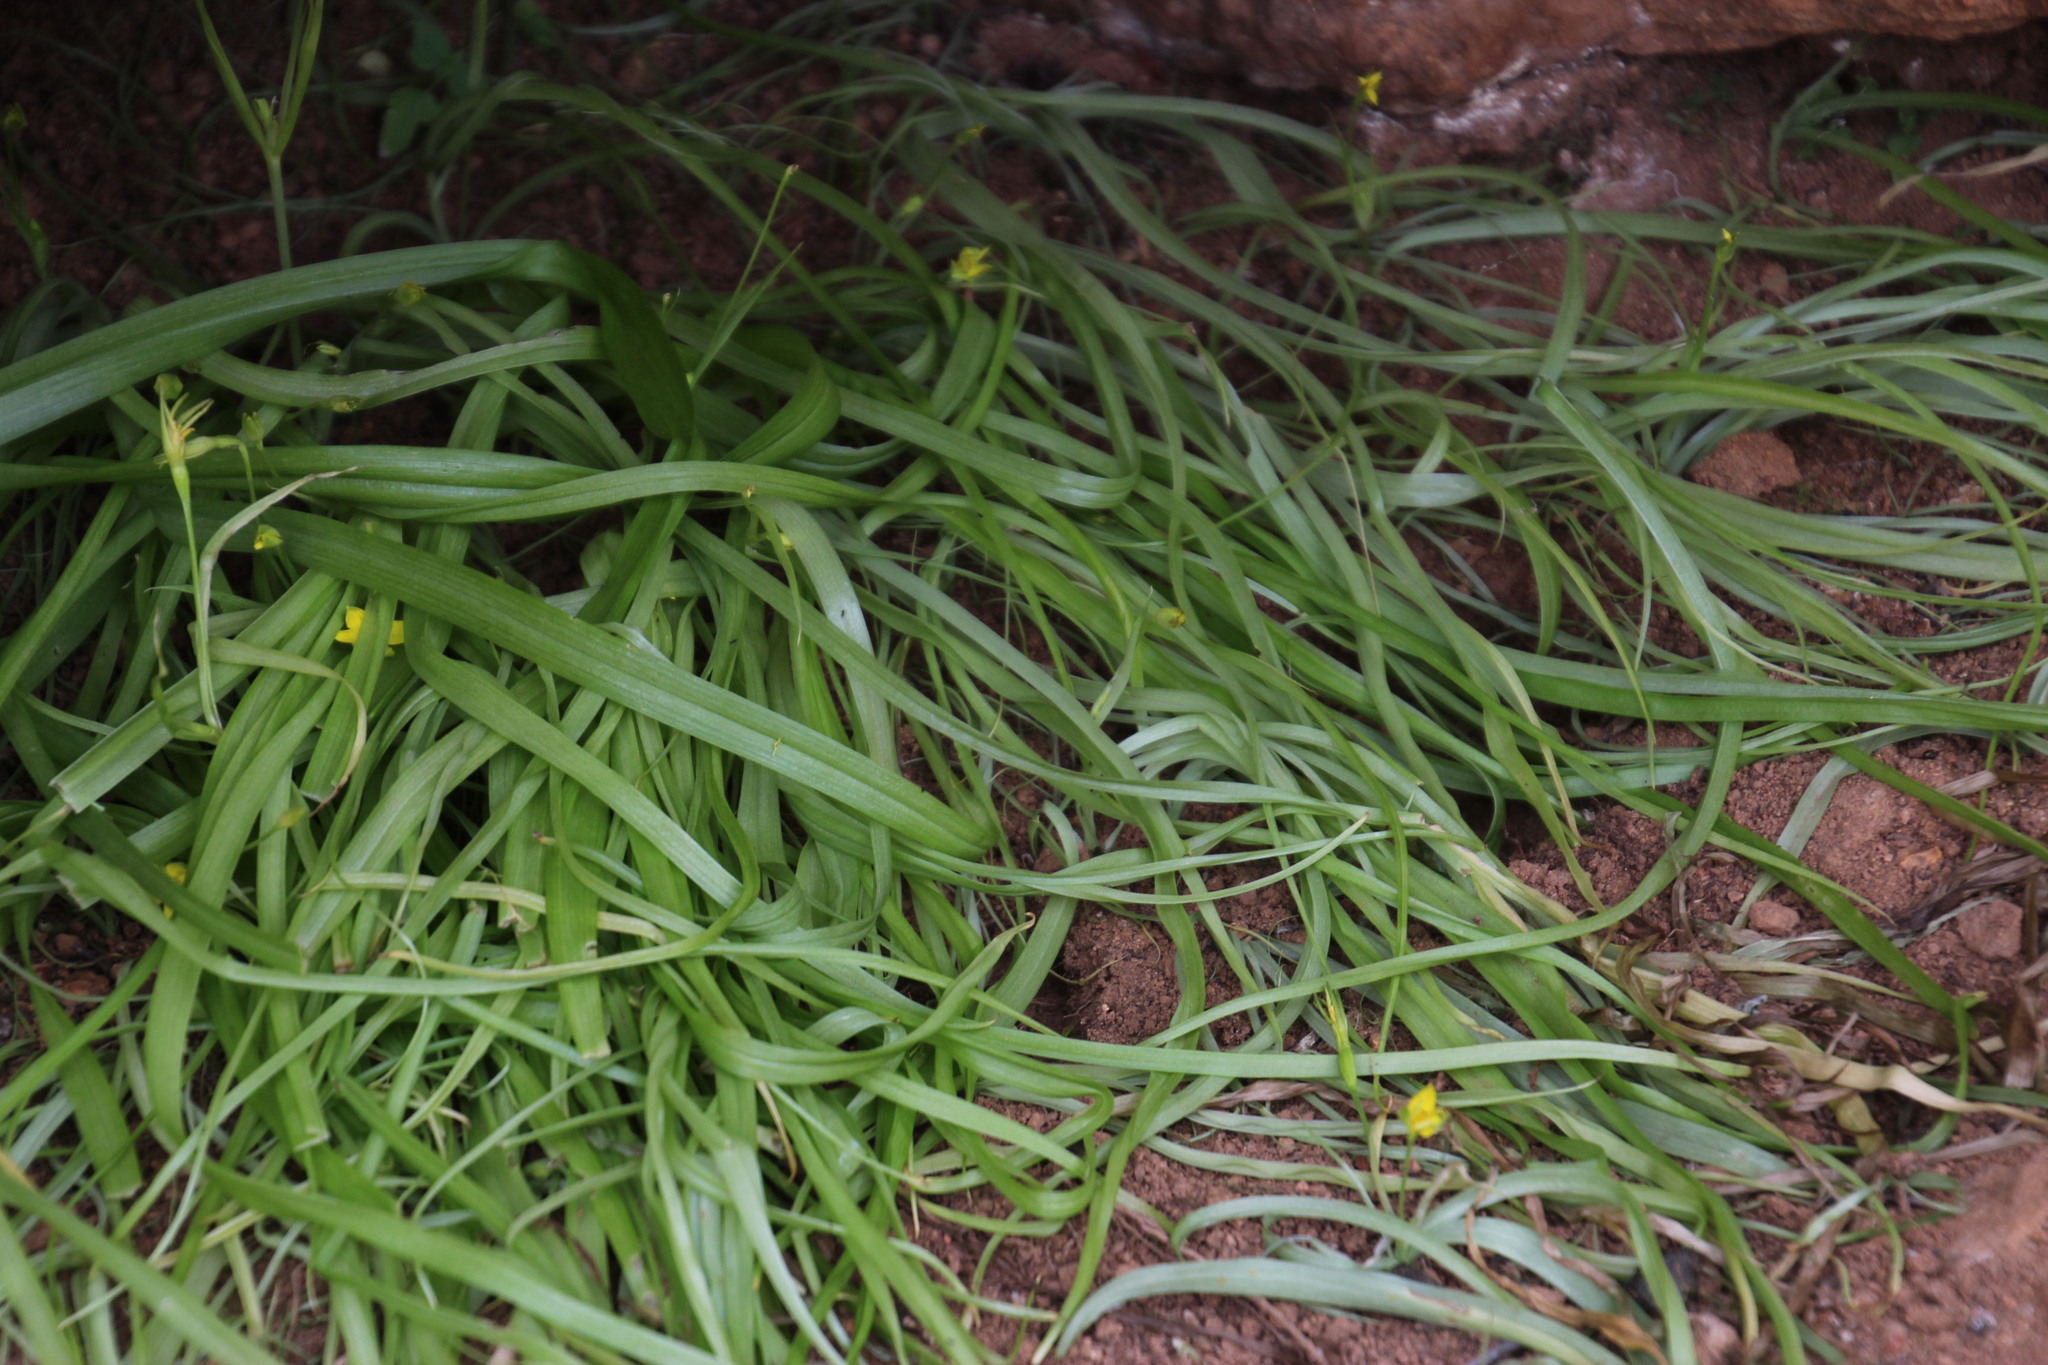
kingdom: Plantae
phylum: Tracheophyta
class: Liliopsida
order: Asparagales
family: Hypoxidaceae
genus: Pauridia
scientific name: Pauridia scullyi
